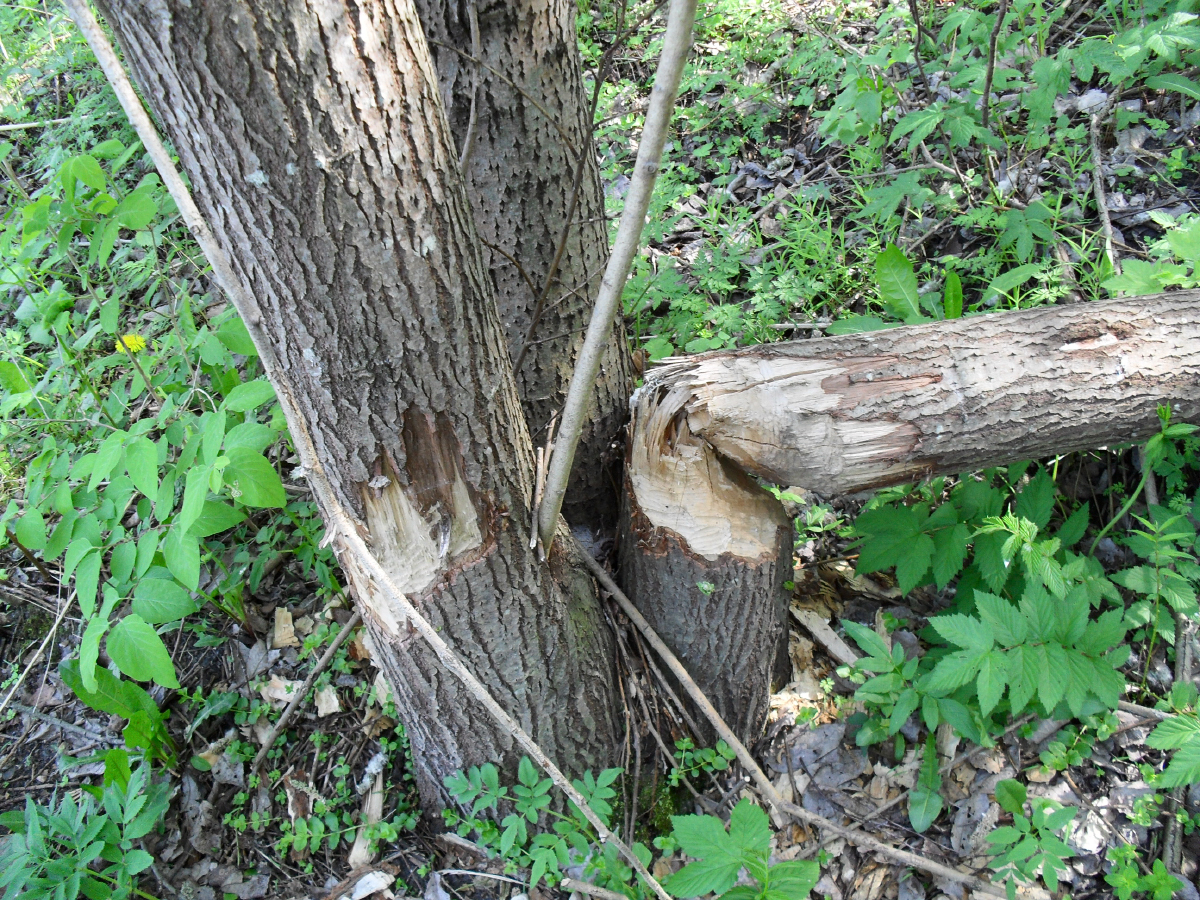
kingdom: Animalia
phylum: Chordata
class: Mammalia
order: Rodentia
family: Castoridae
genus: Castor
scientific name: Castor fiber
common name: Eurasian beaver
